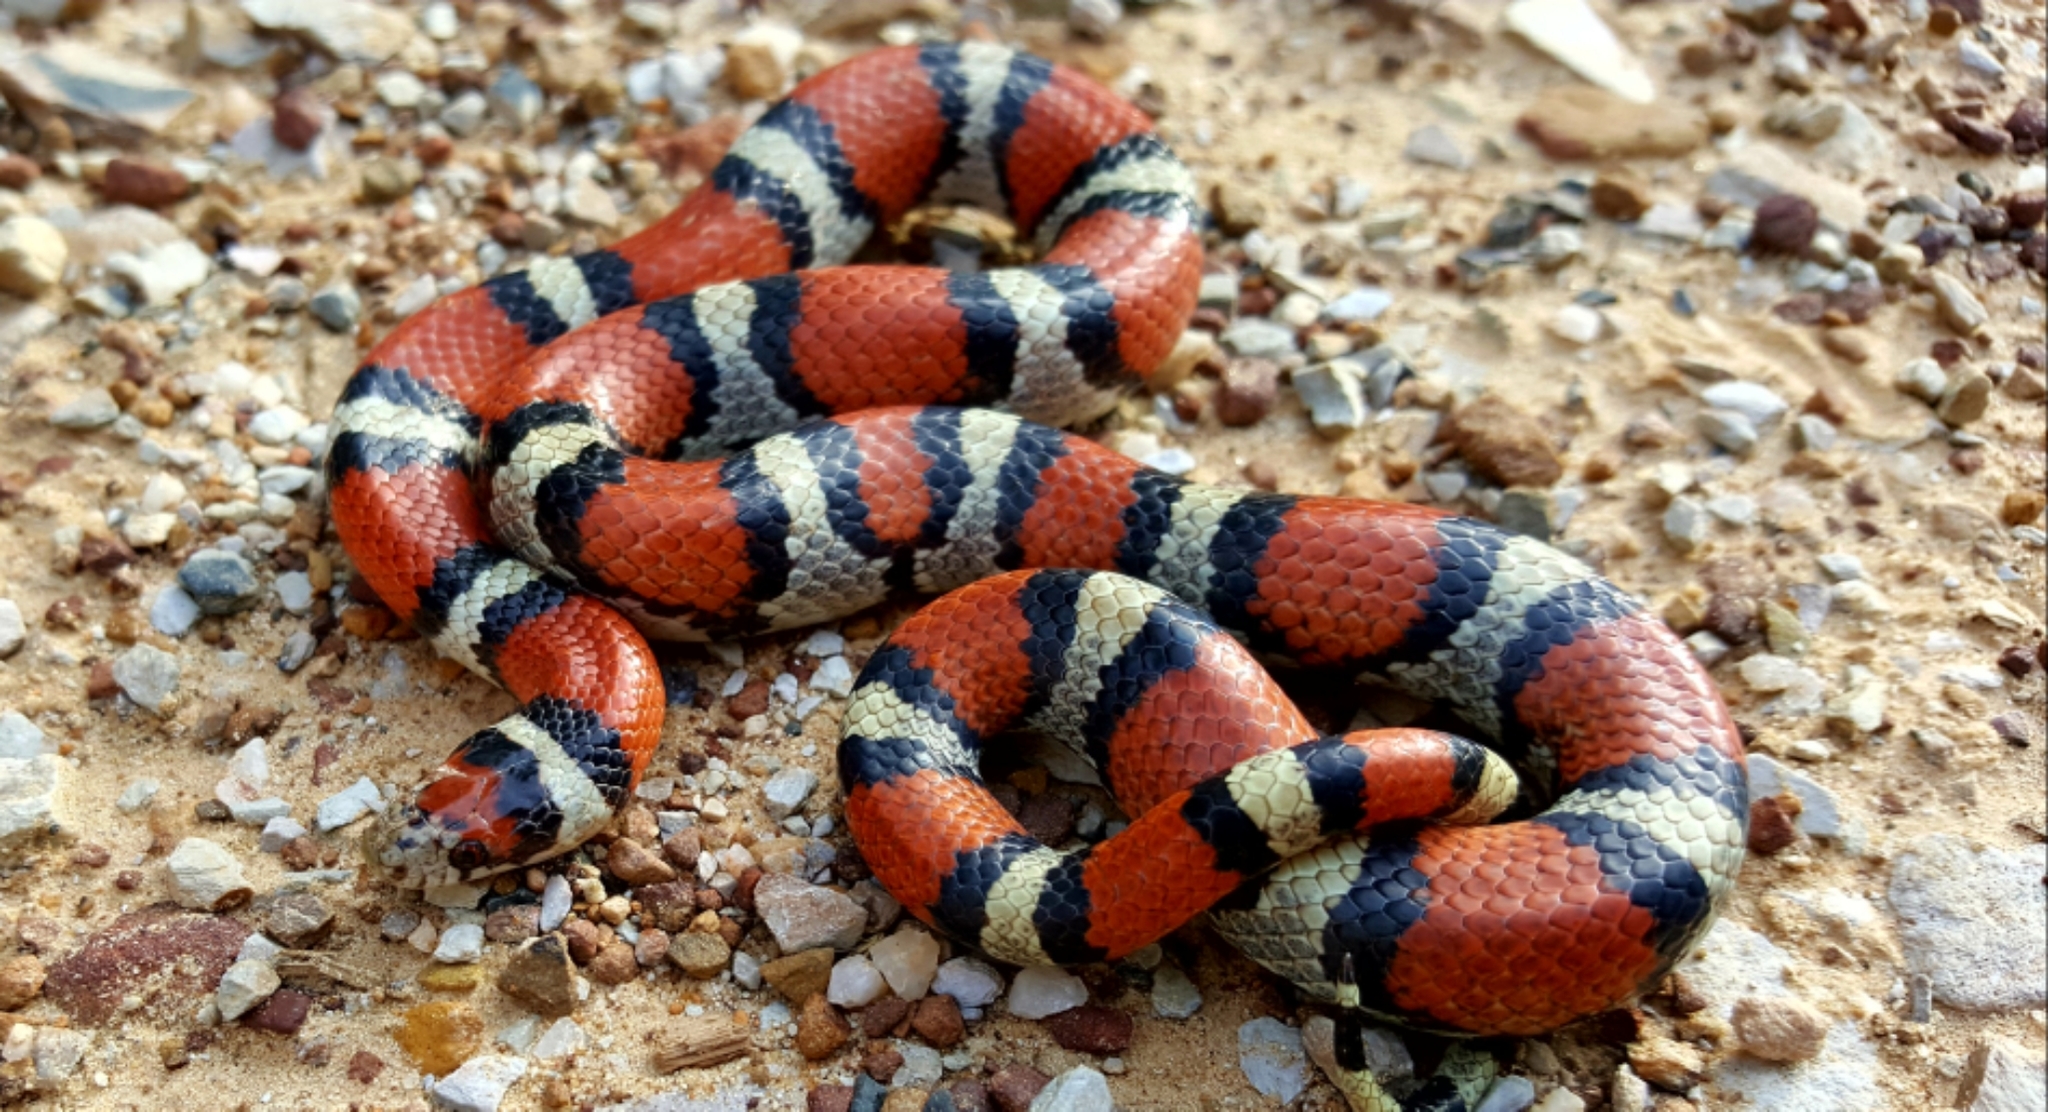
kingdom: Animalia
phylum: Chordata
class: Squamata
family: Colubridae
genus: Lampropeltis
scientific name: Lampropeltis gentilis
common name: Central plains milksnake
